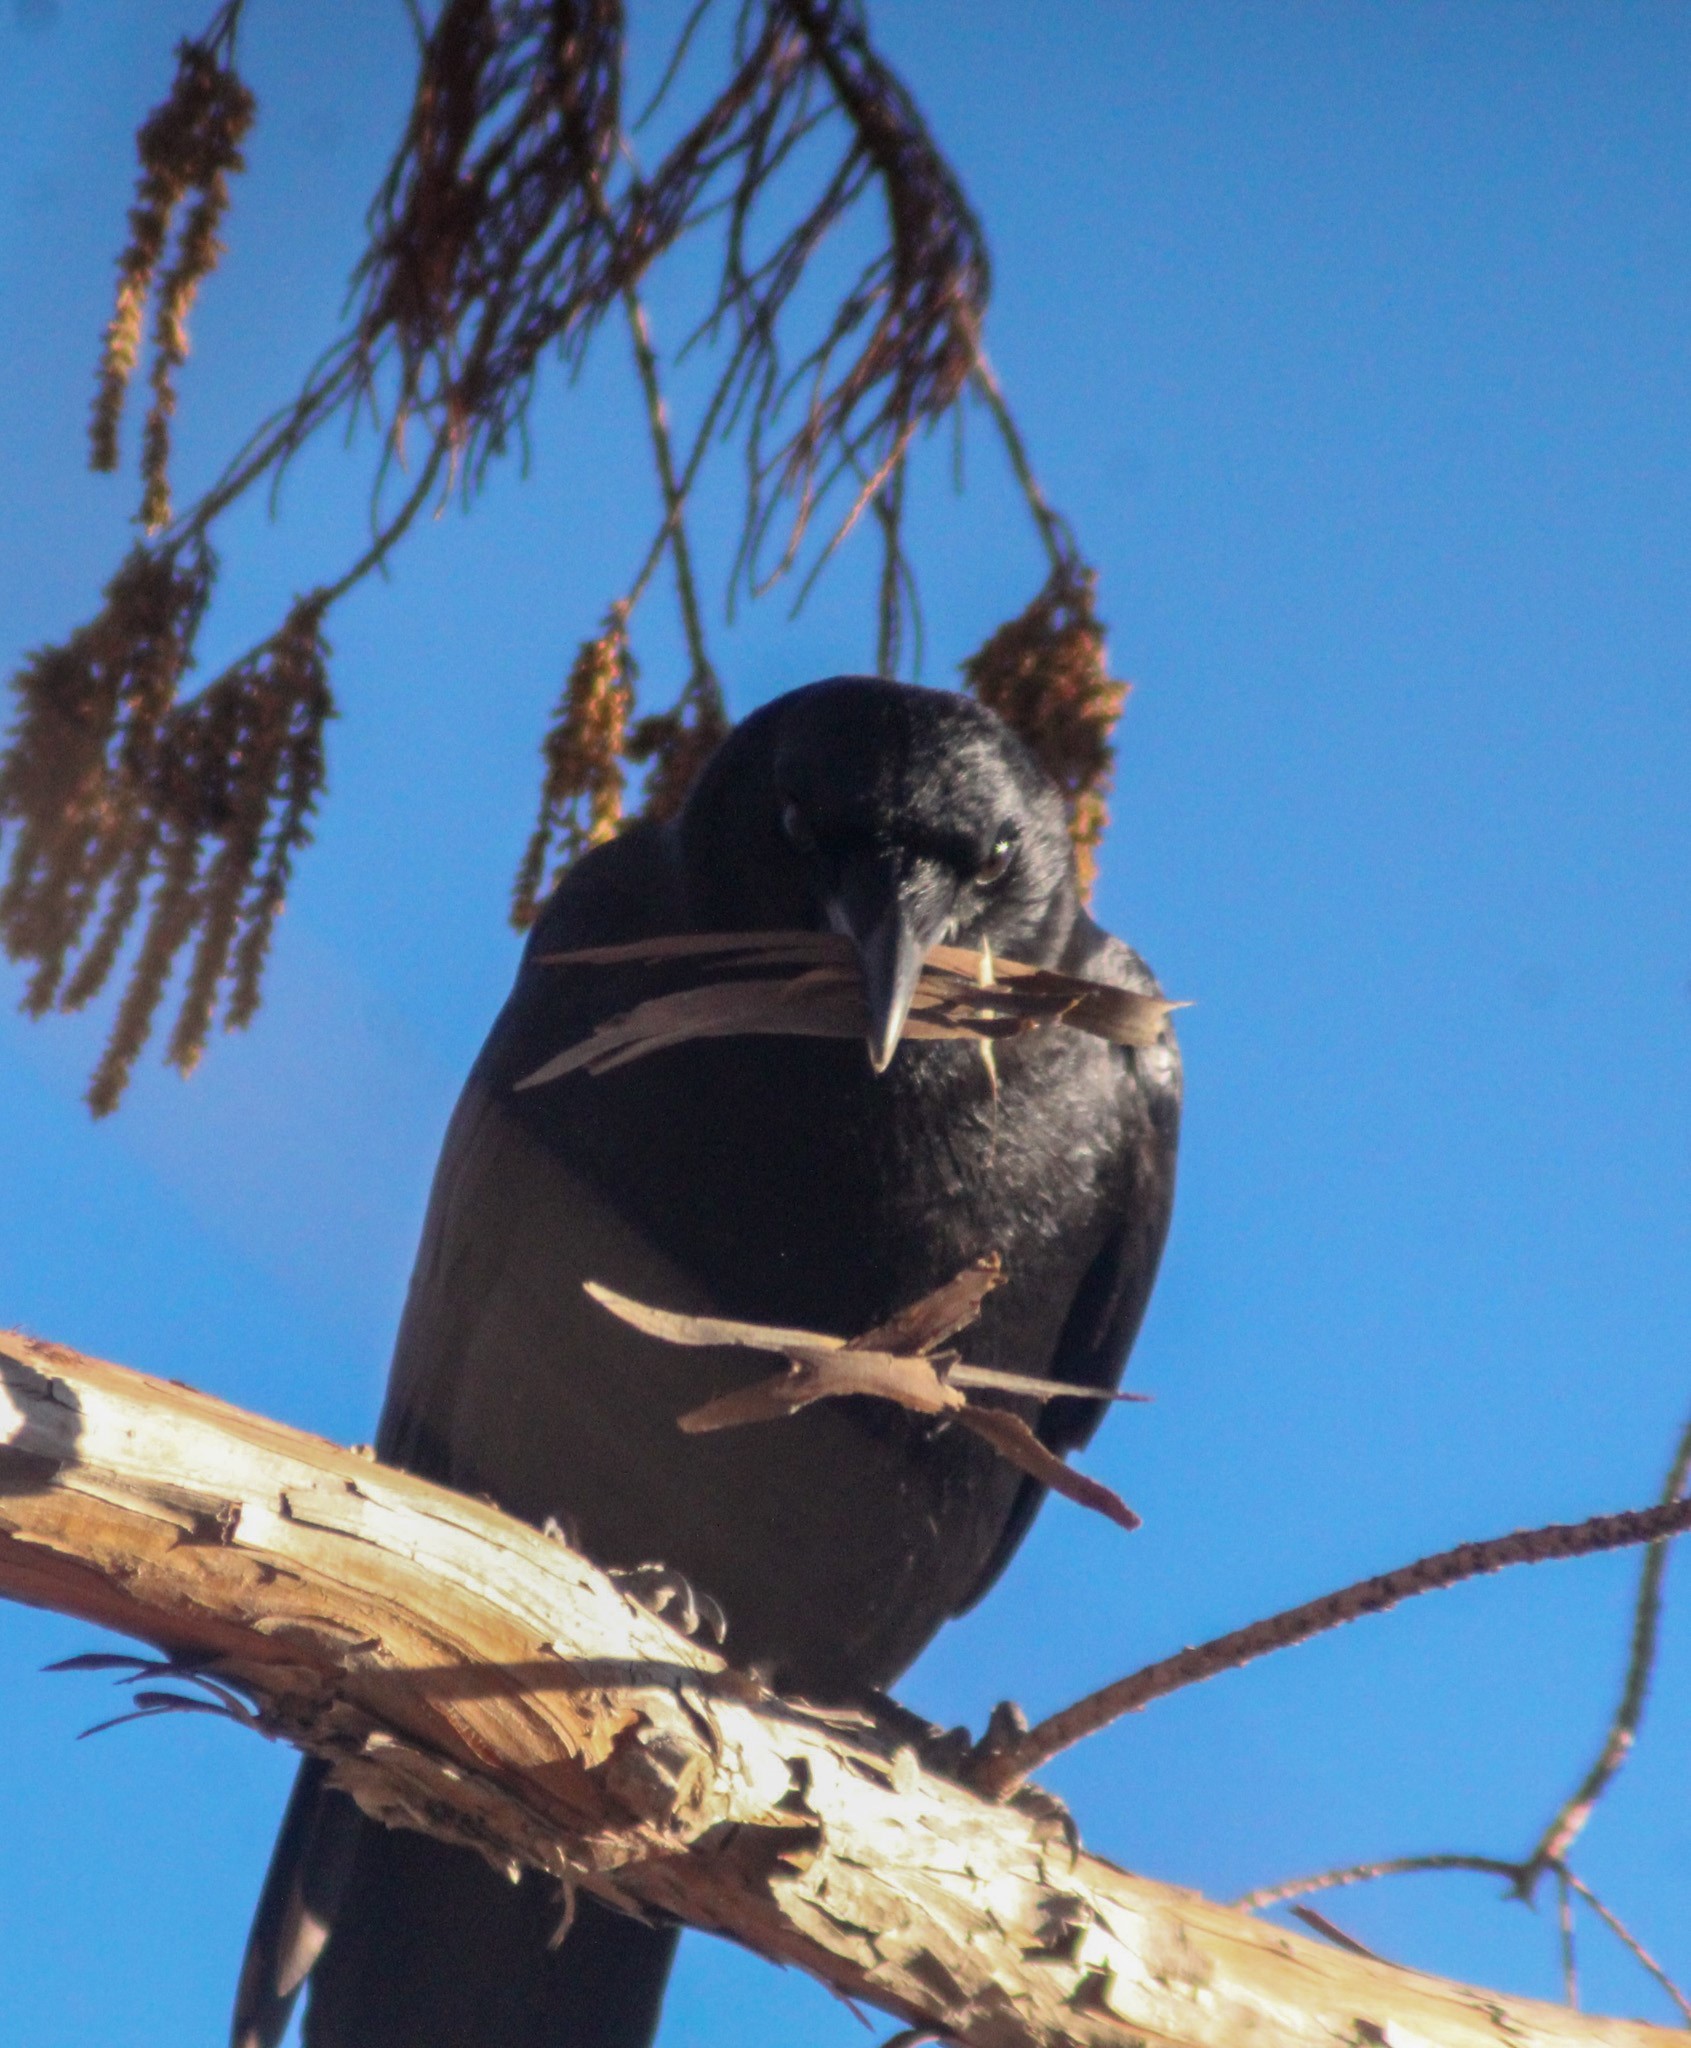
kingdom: Animalia
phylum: Chordata
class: Aves
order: Passeriformes
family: Corvidae
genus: Corvus
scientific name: Corvus brachyrhynchos
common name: American crow
